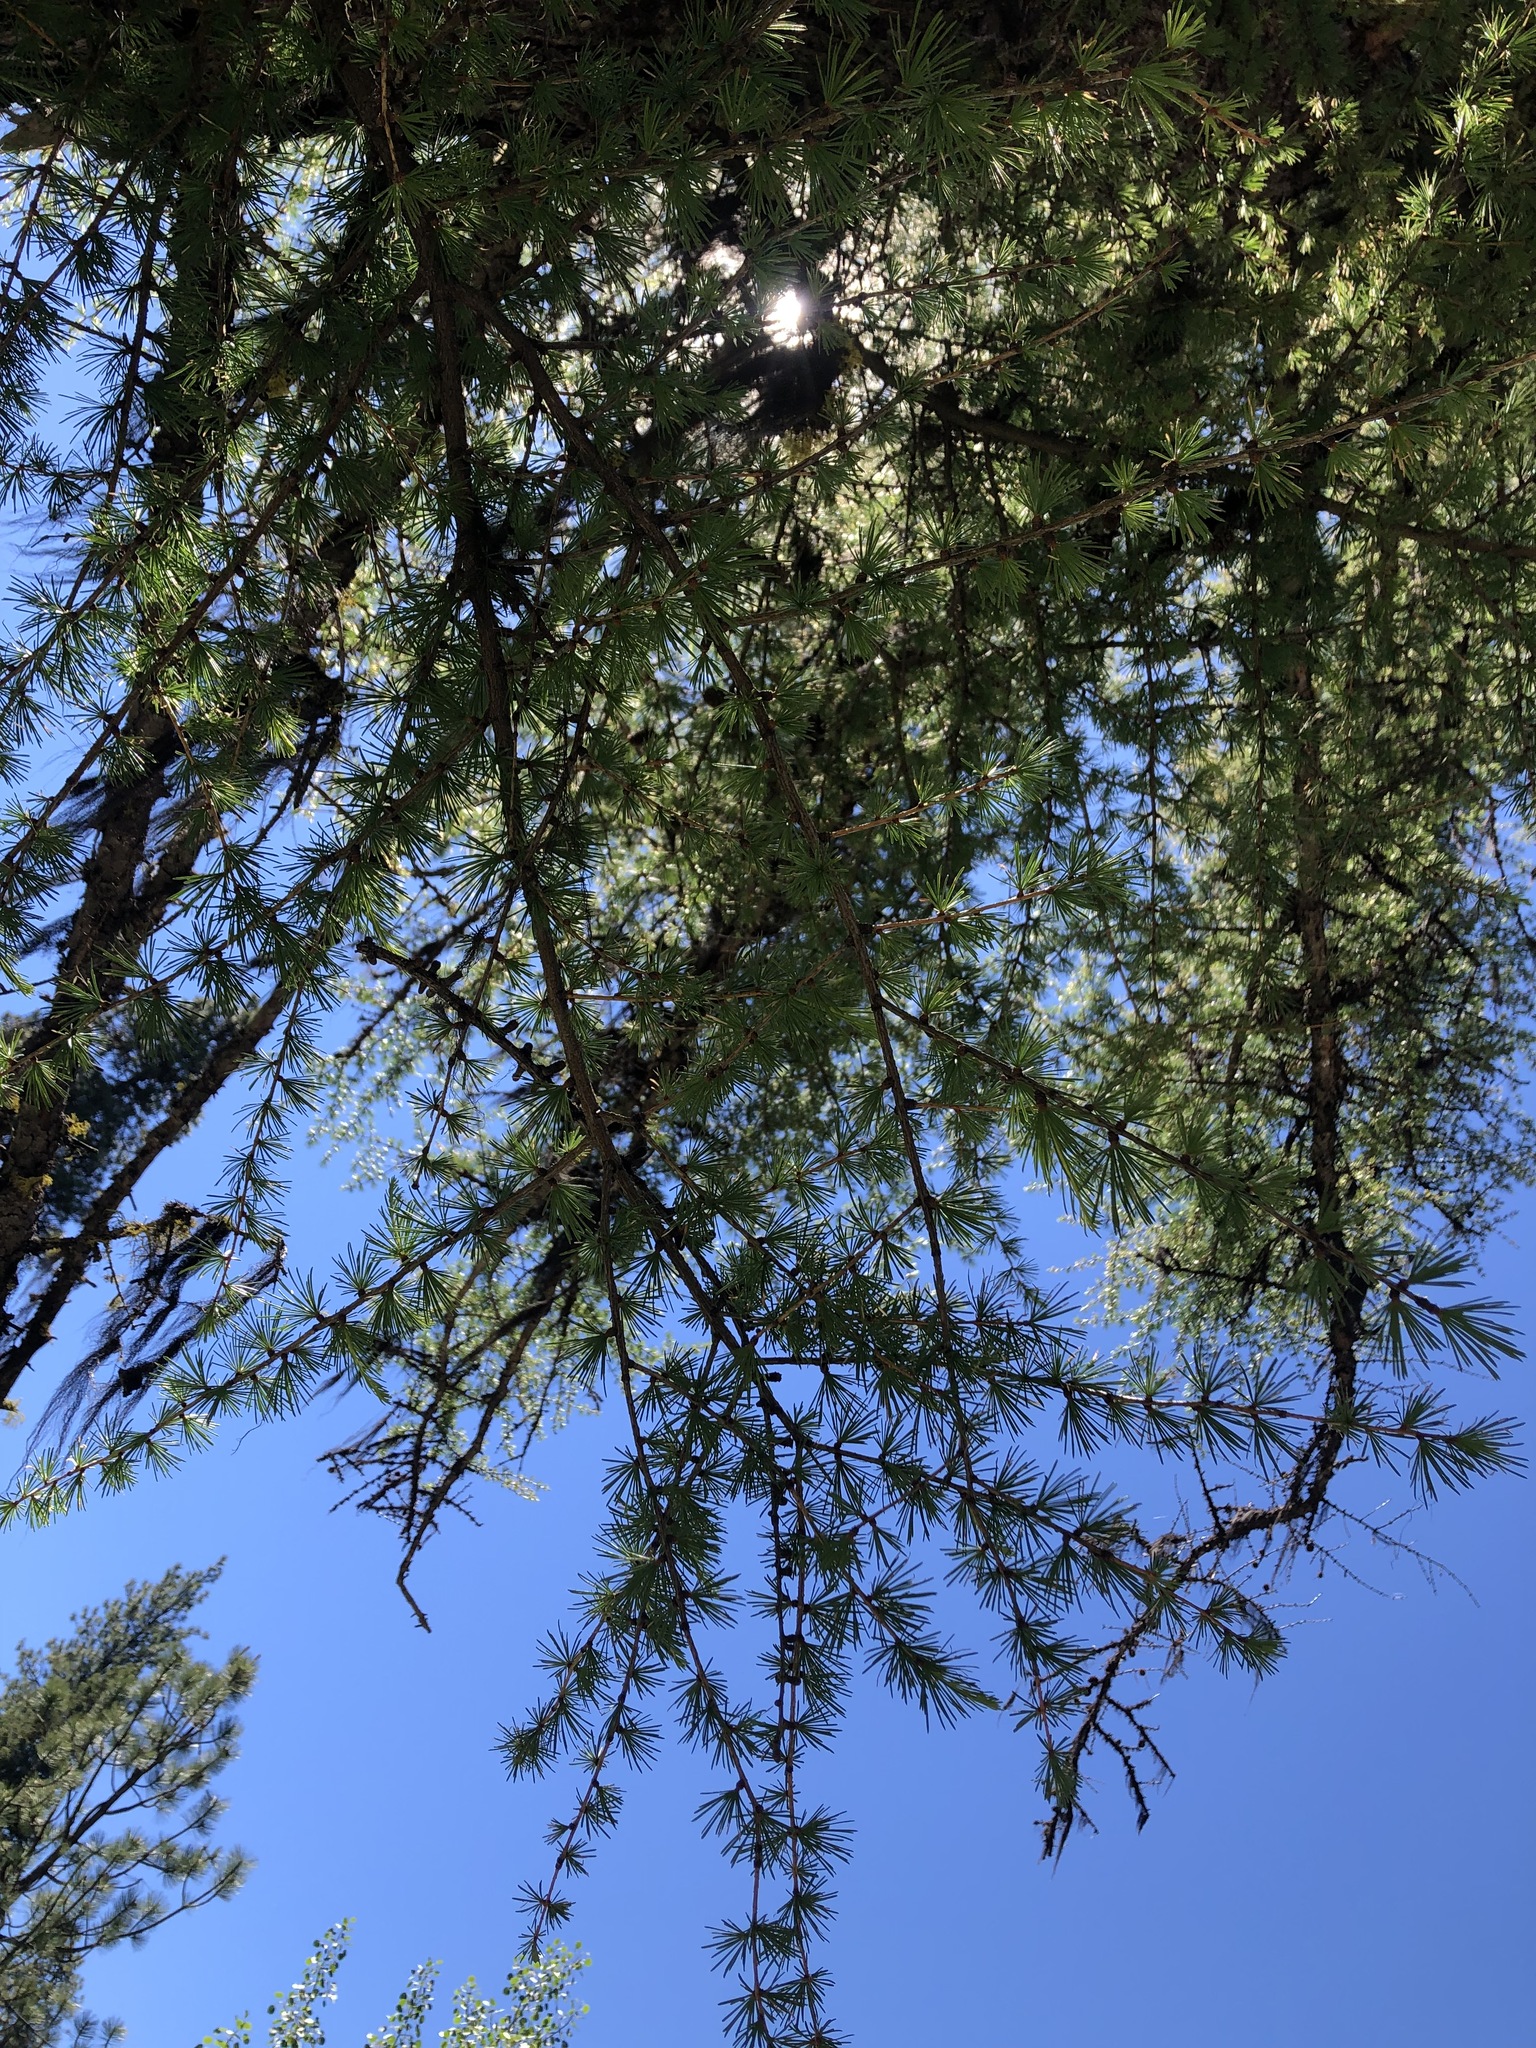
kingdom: Plantae
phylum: Tracheophyta
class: Pinopsida
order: Pinales
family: Pinaceae
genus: Larix
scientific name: Larix occidentalis
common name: Western larch
